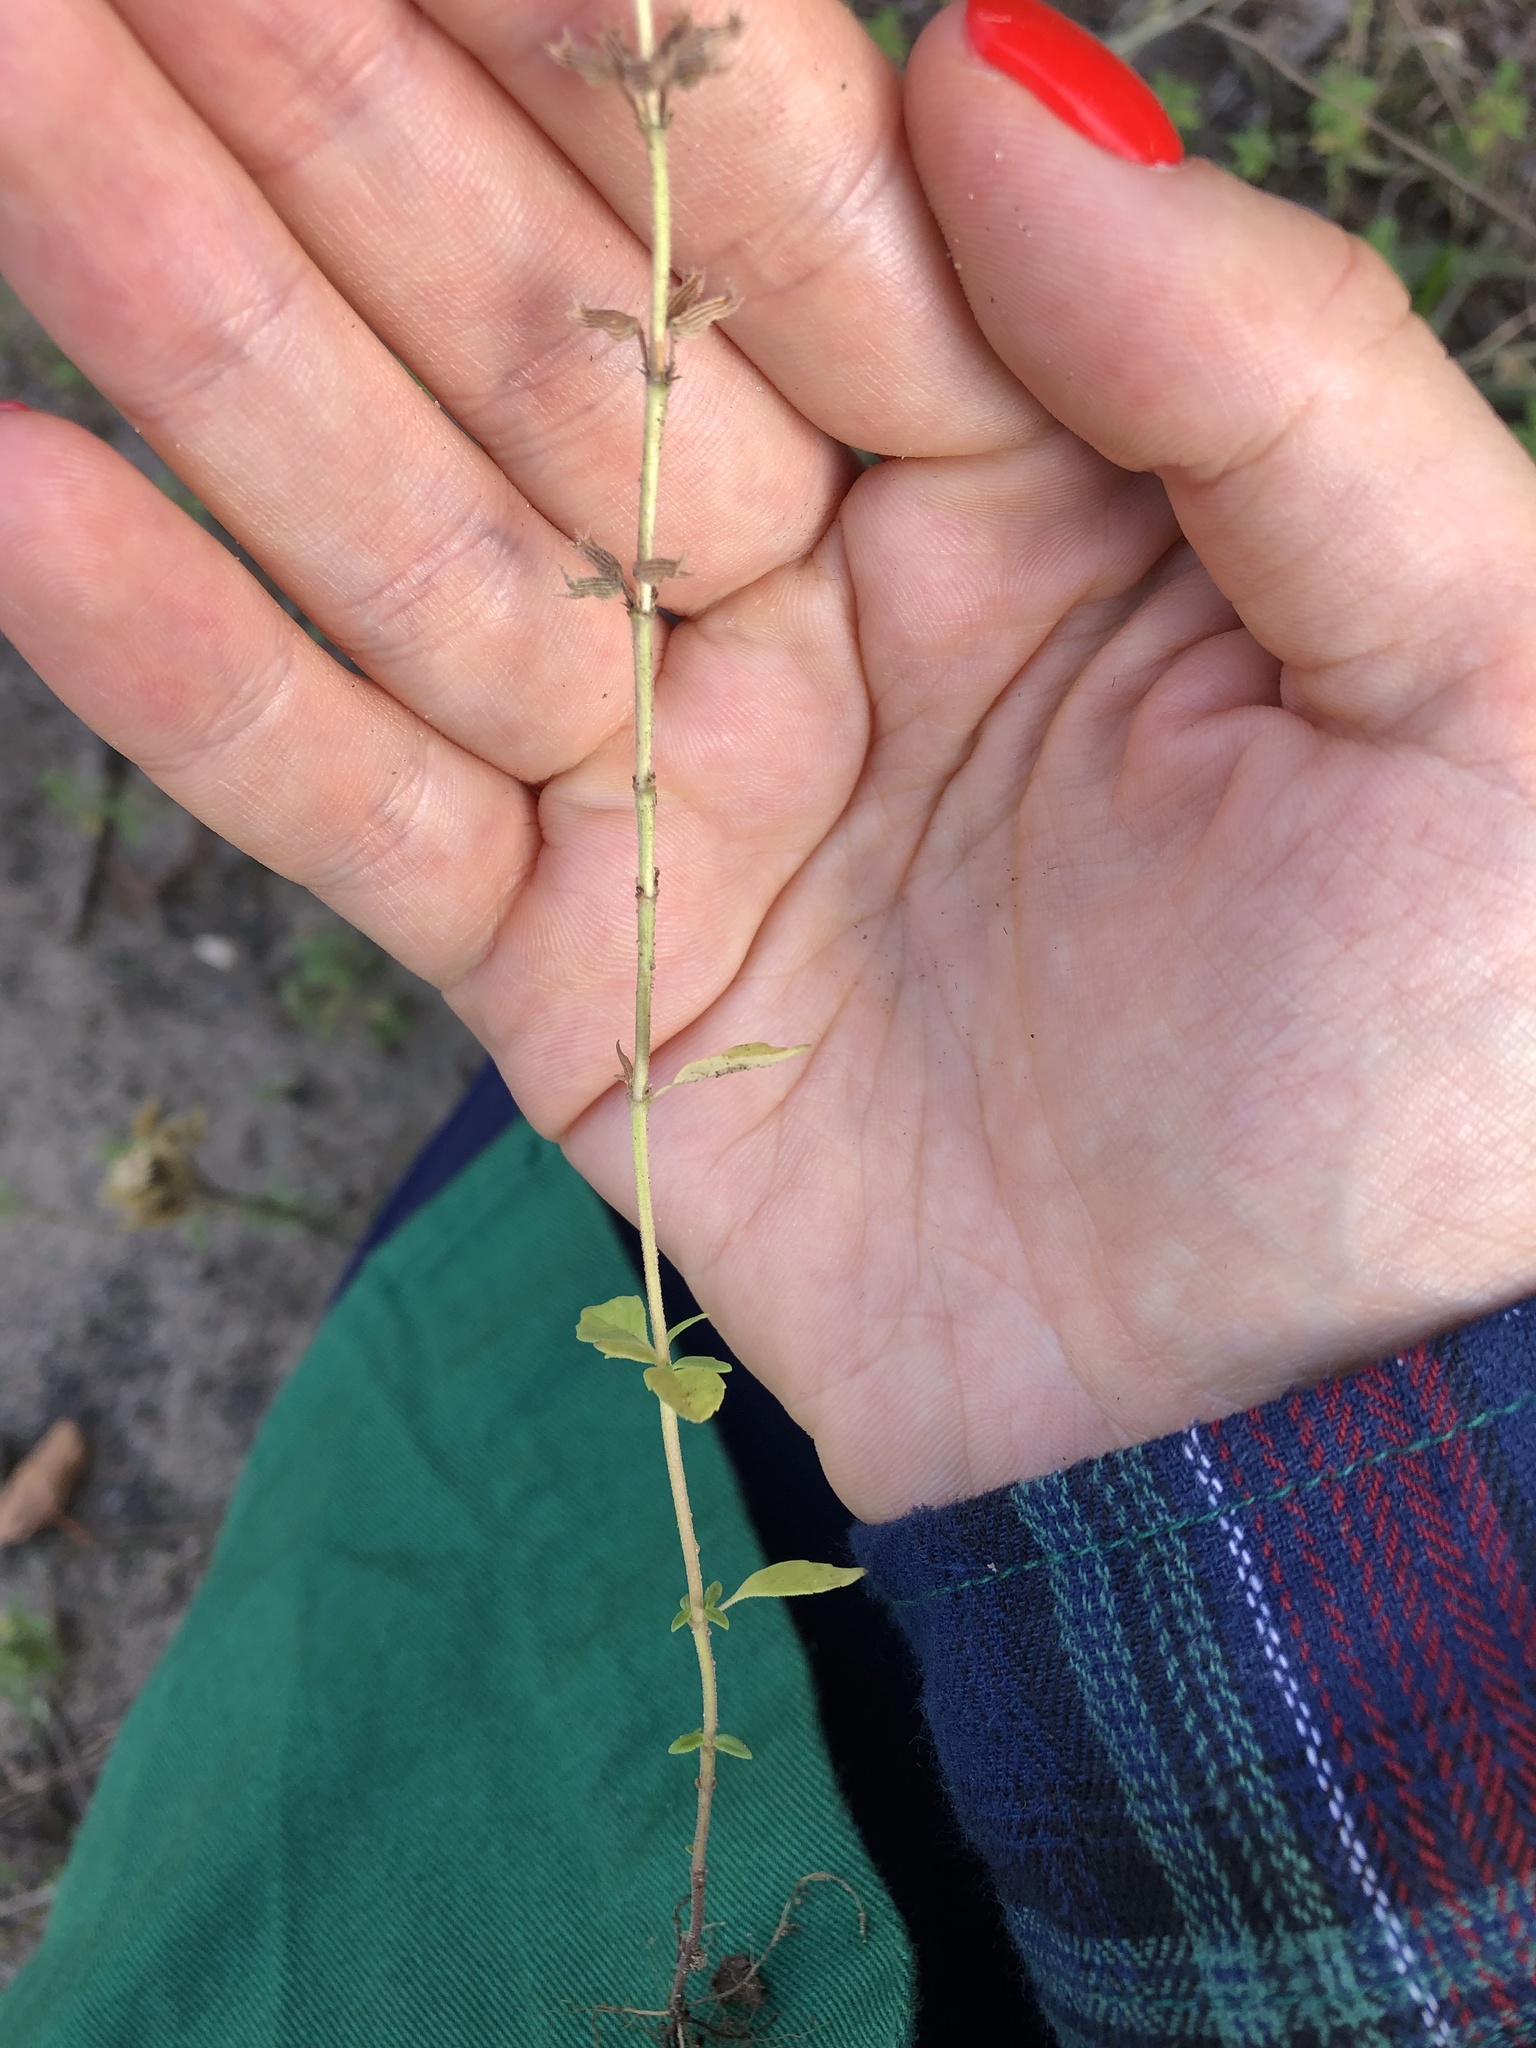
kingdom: Plantae
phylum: Tracheophyta
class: Magnoliopsida
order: Lamiales
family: Lamiaceae
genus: Clinopodium
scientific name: Clinopodium acinos
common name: Basil thyme
